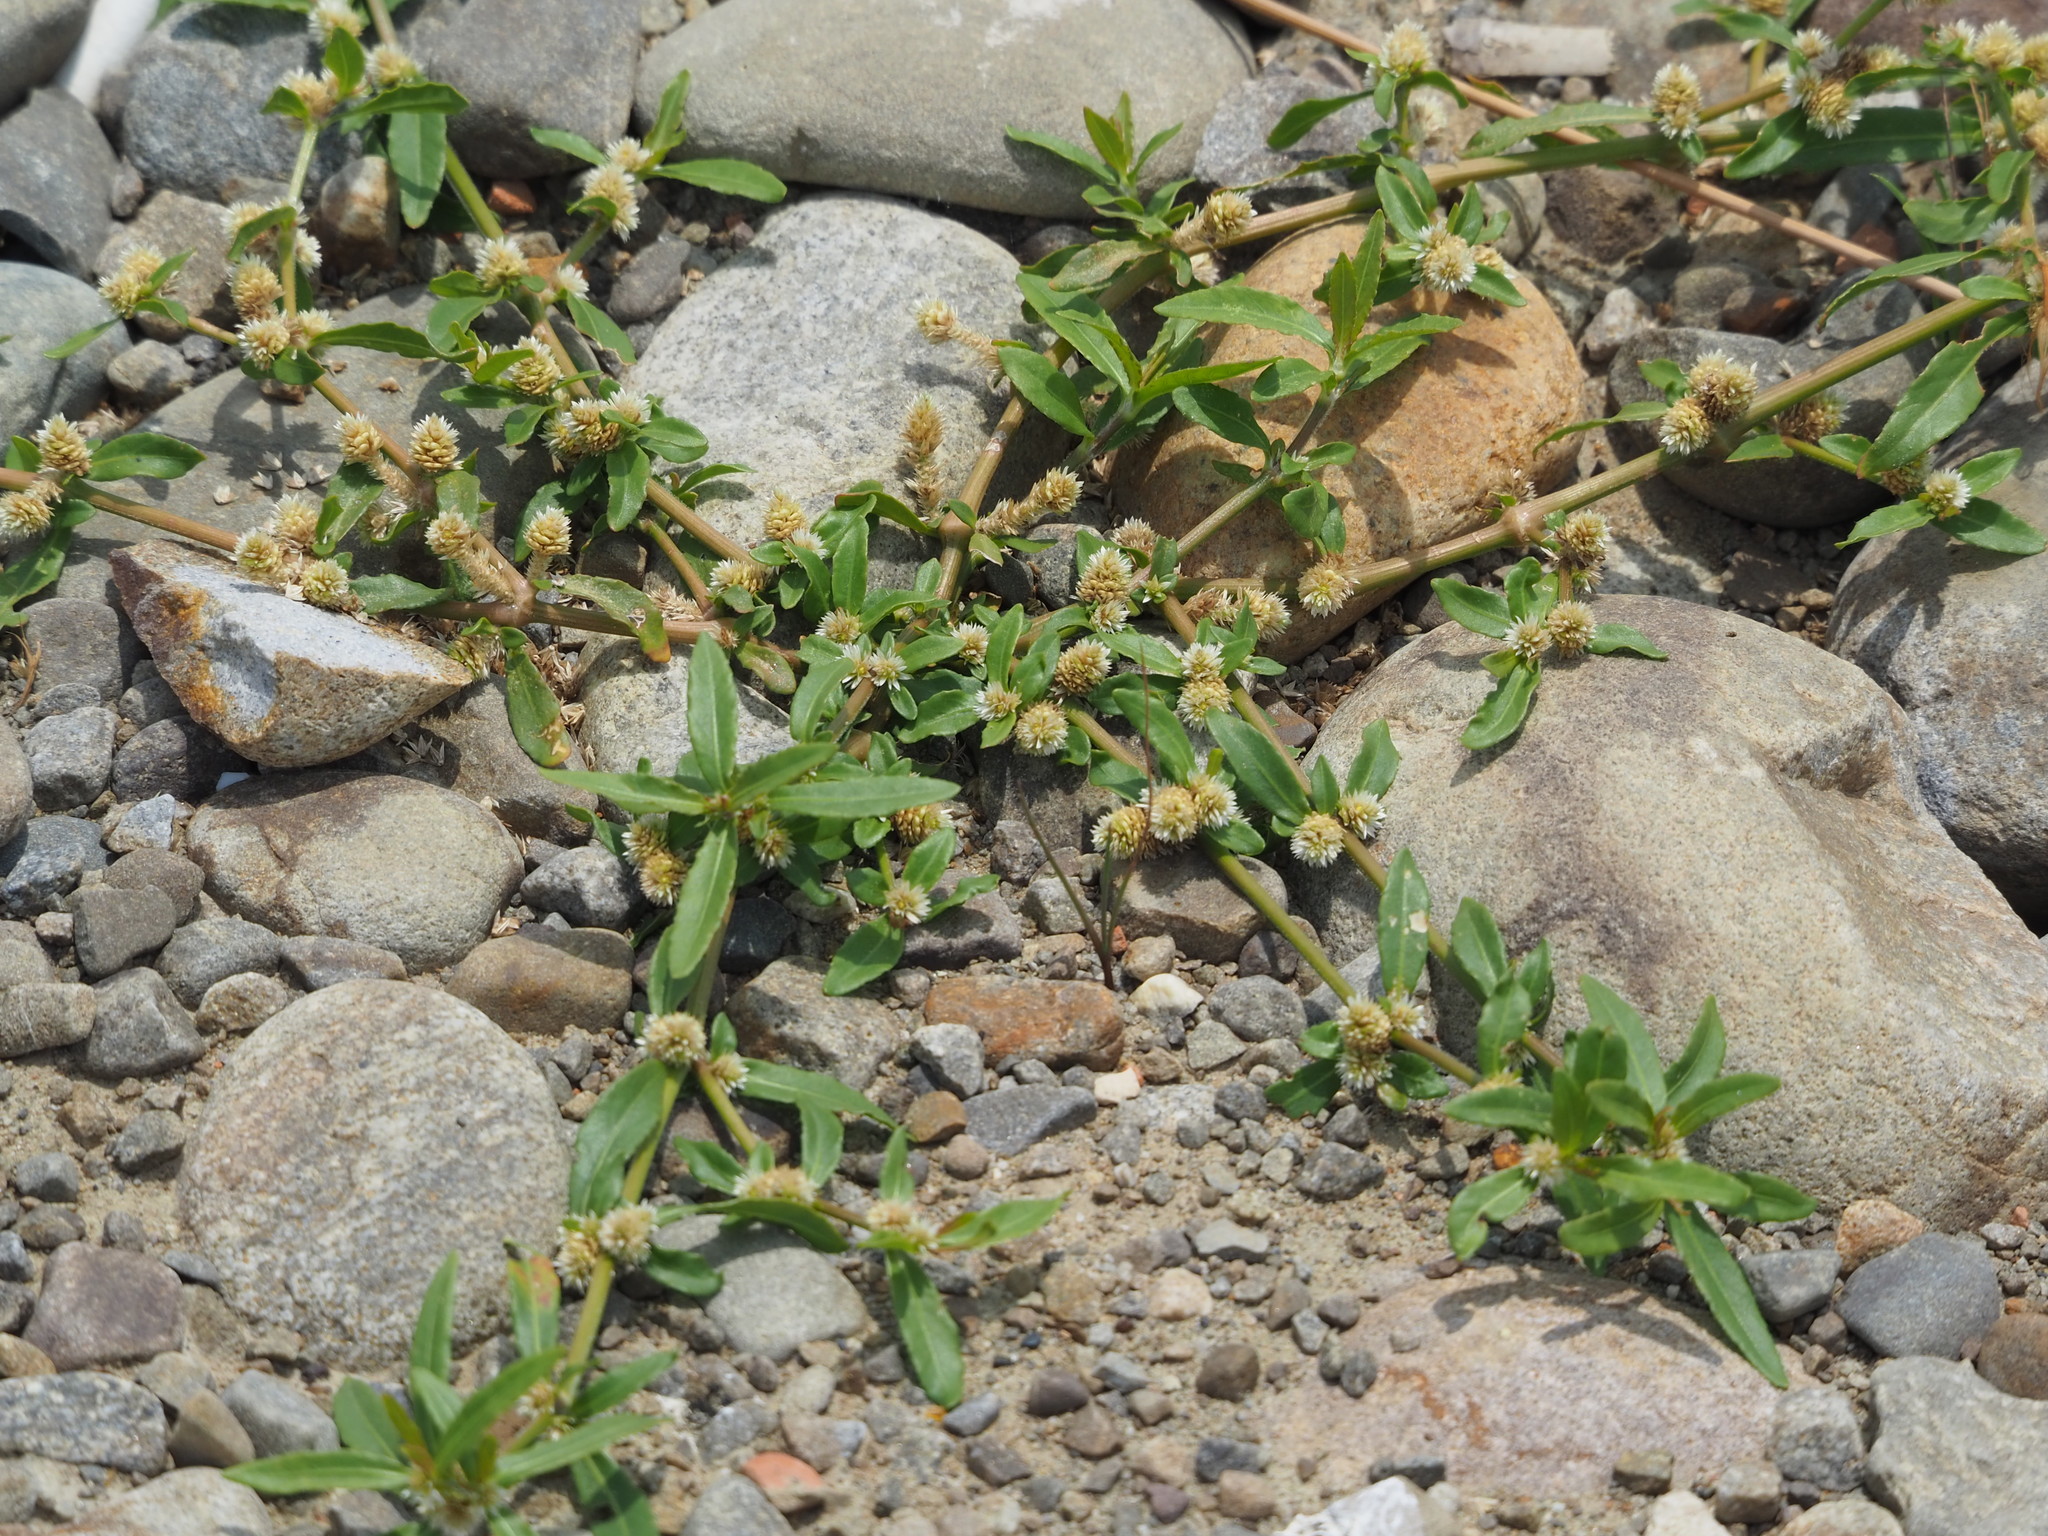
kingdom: Plantae
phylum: Tracheophyta
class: Magnoliopsida
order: Caryophyllales
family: Amaranthaceae
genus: Alternanthera
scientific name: Alternanthera sessilis
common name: Sessile joyweed
